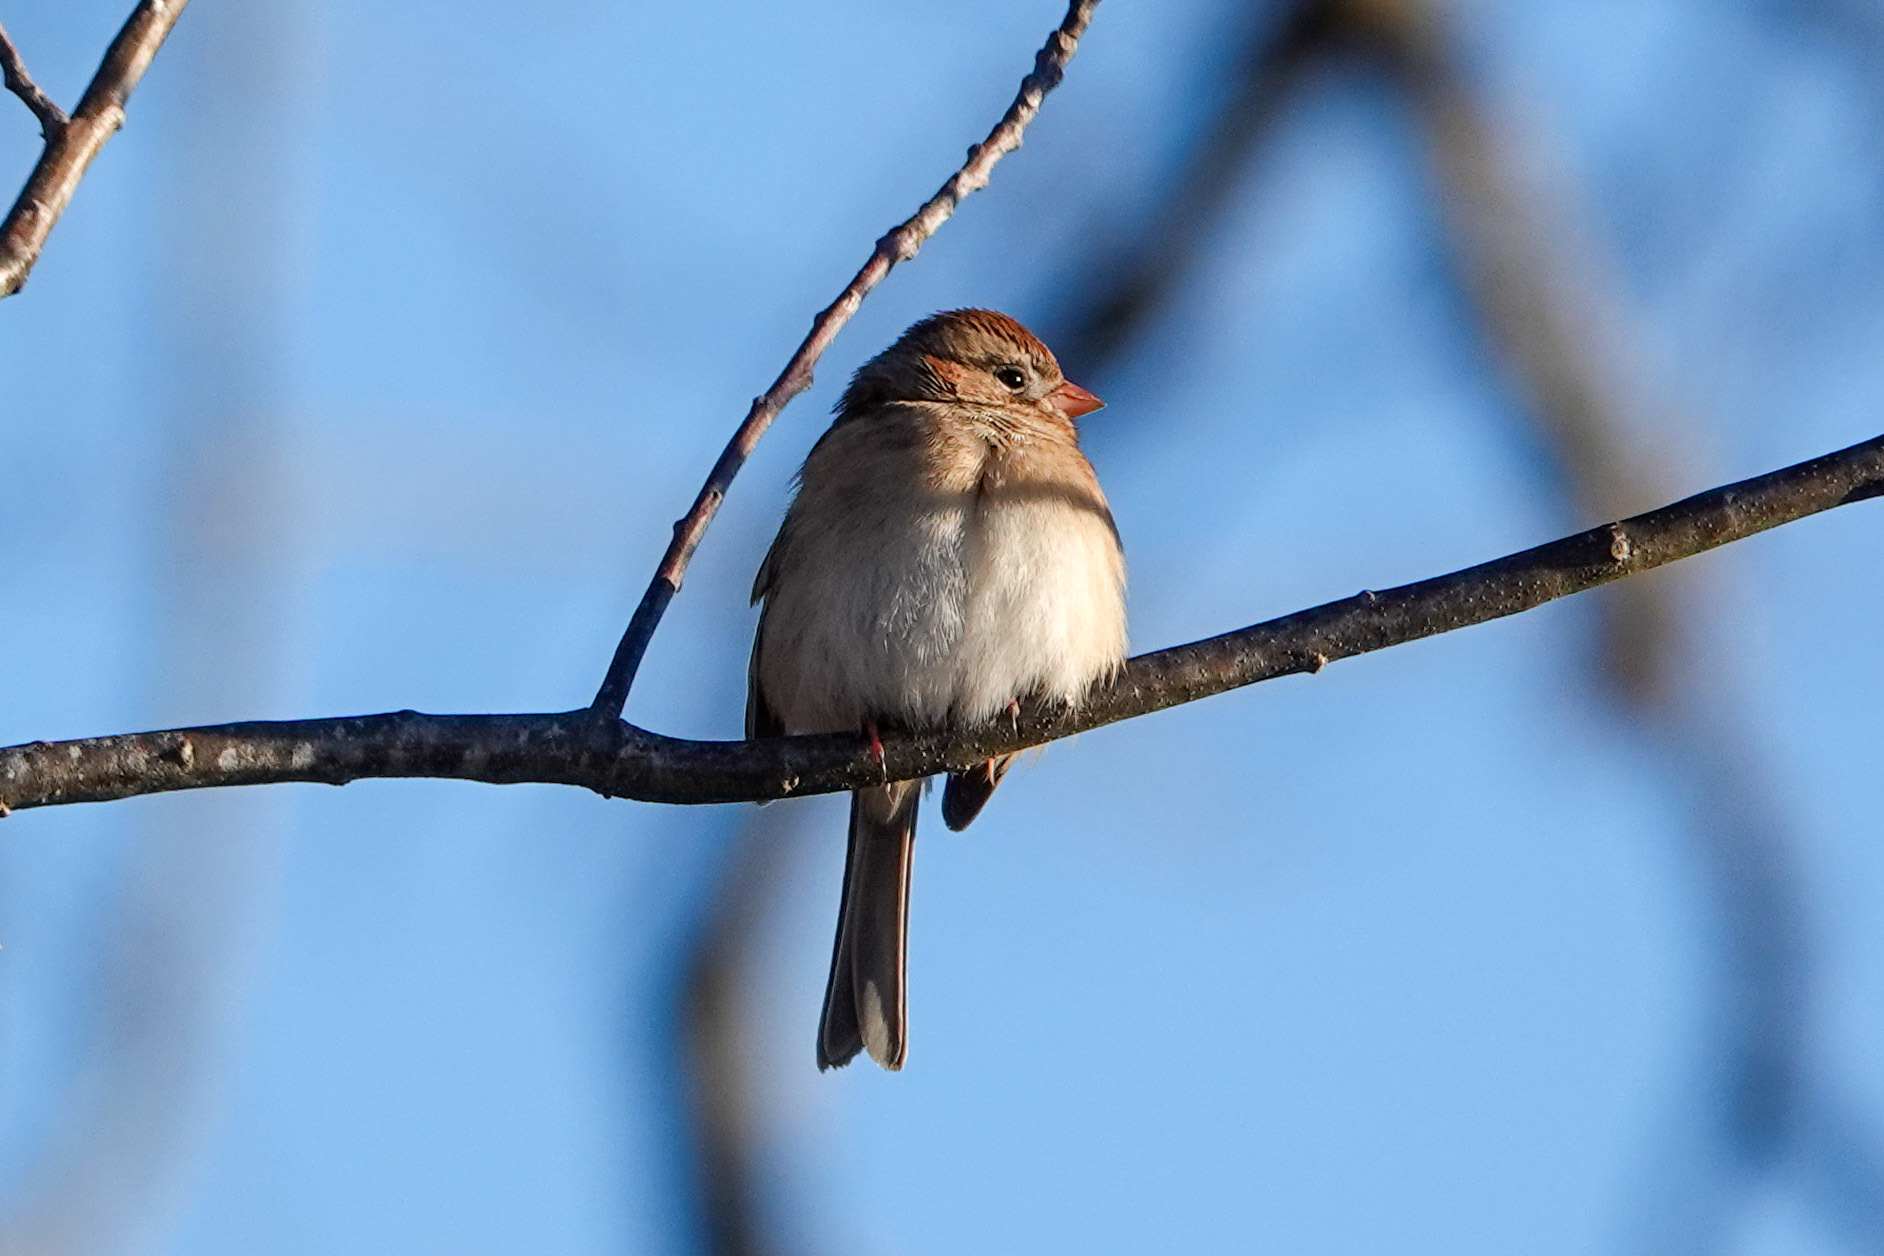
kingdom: Animalia
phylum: Chordata
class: Aves
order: Passeriformes
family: Passerellidae
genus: Spizella
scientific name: Spizella pusilla
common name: Field sparrow
